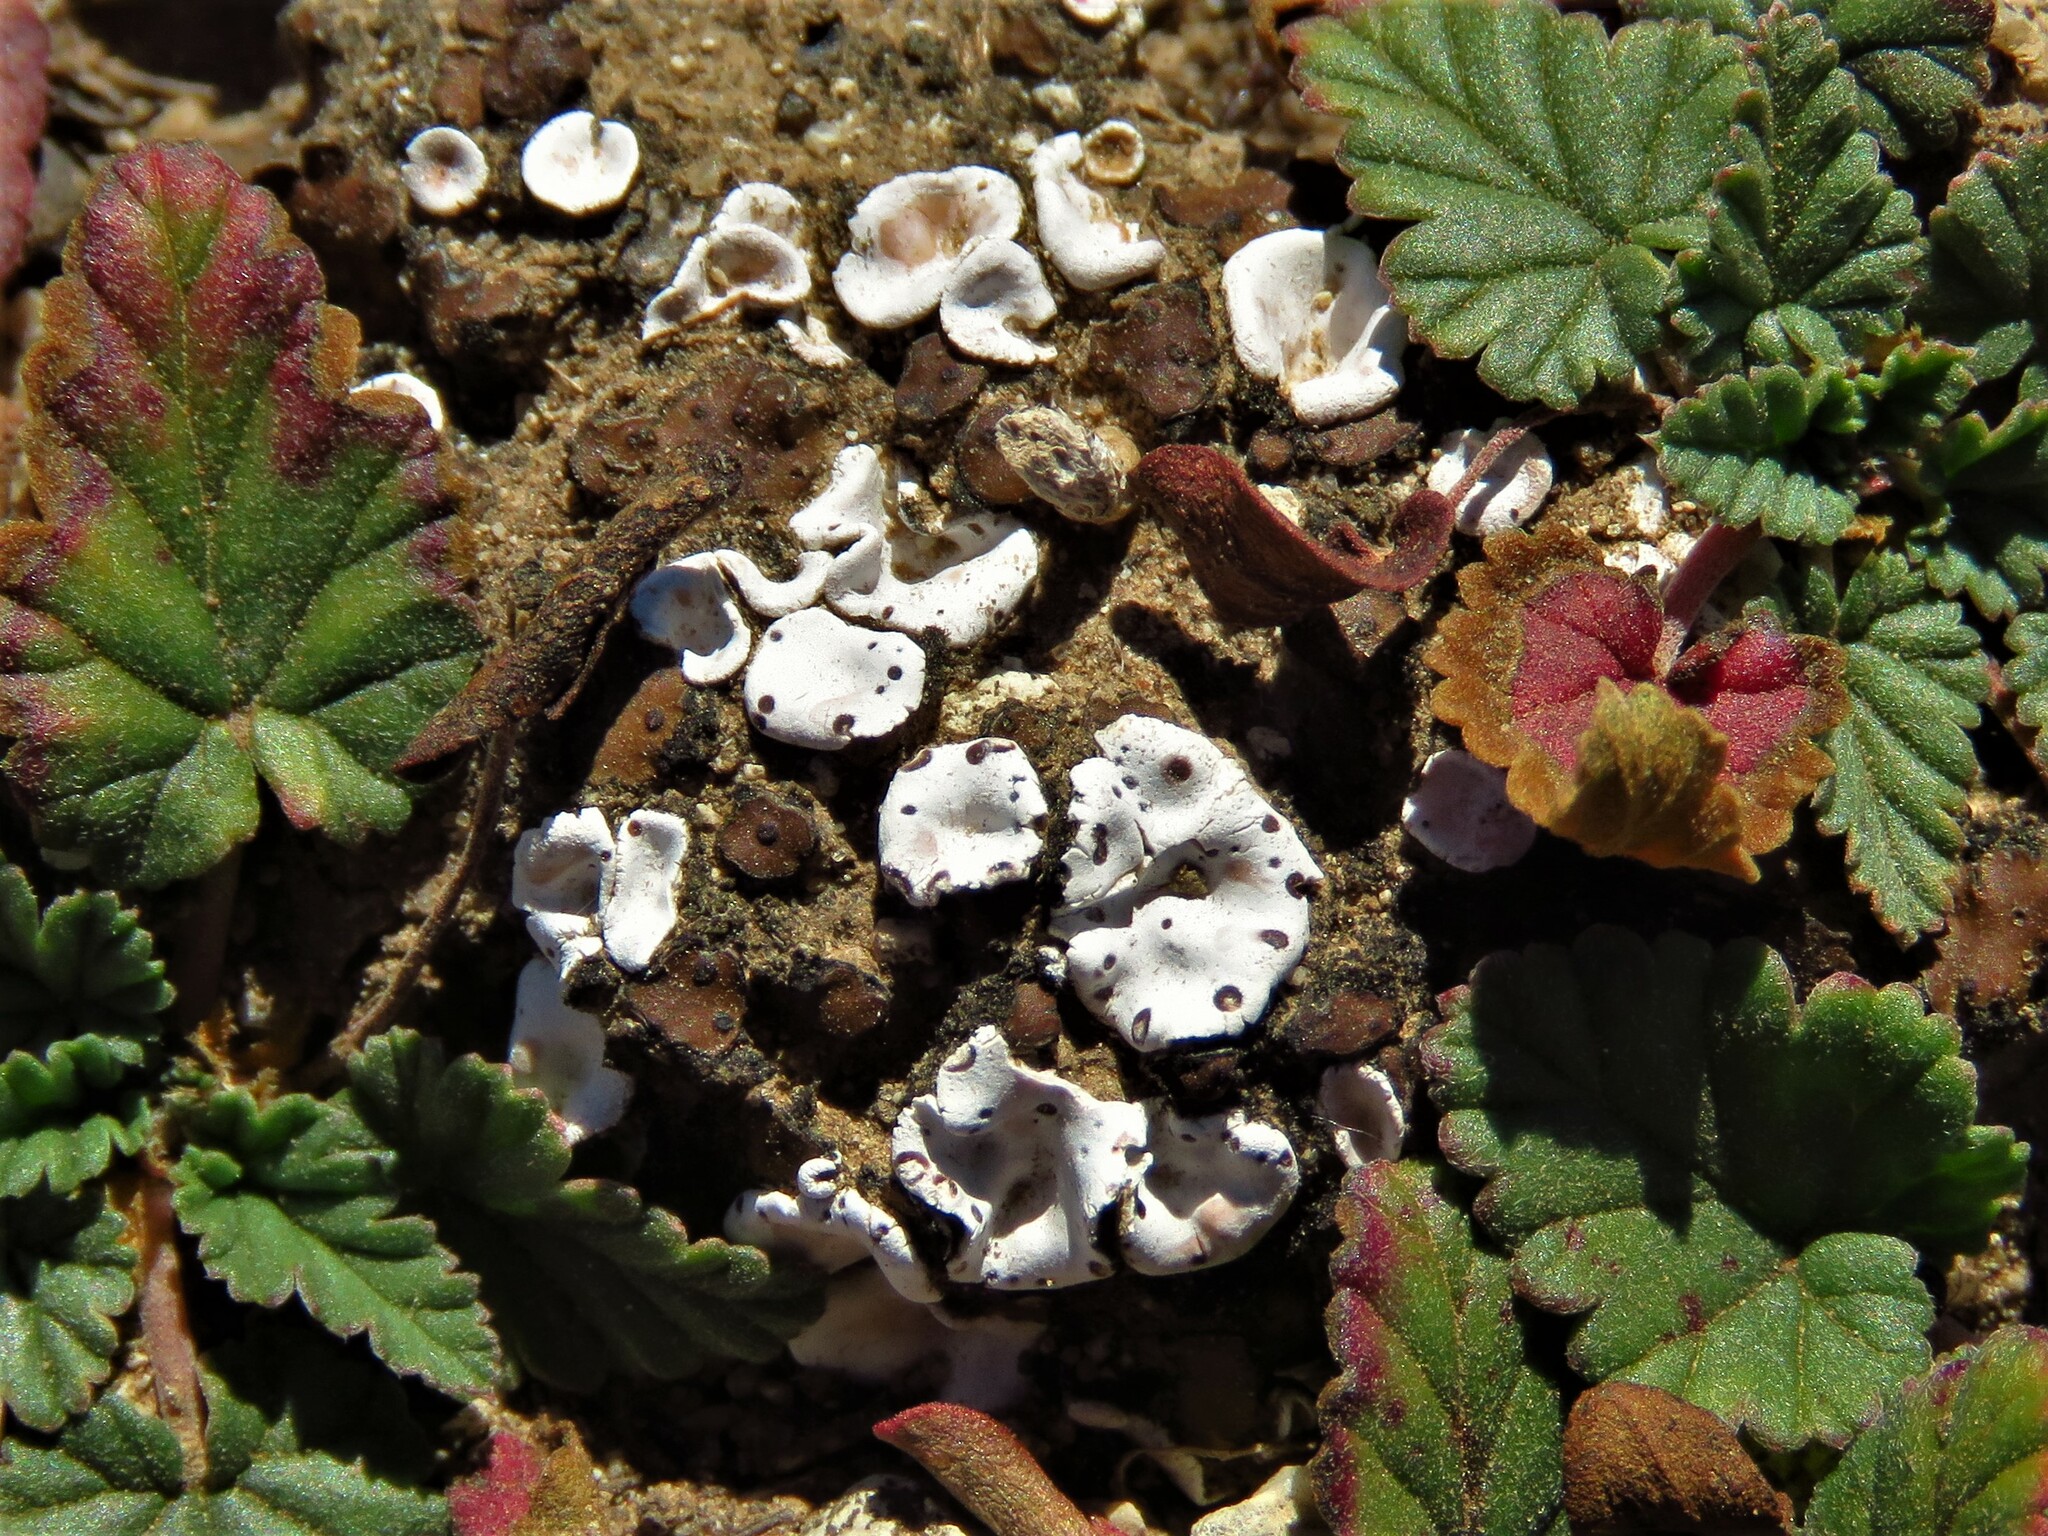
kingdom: Fungi
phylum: Ascomycota
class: Lecanoromycetes
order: Lecanorales
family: Psoraceae
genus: Psora
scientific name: Psora crenata
